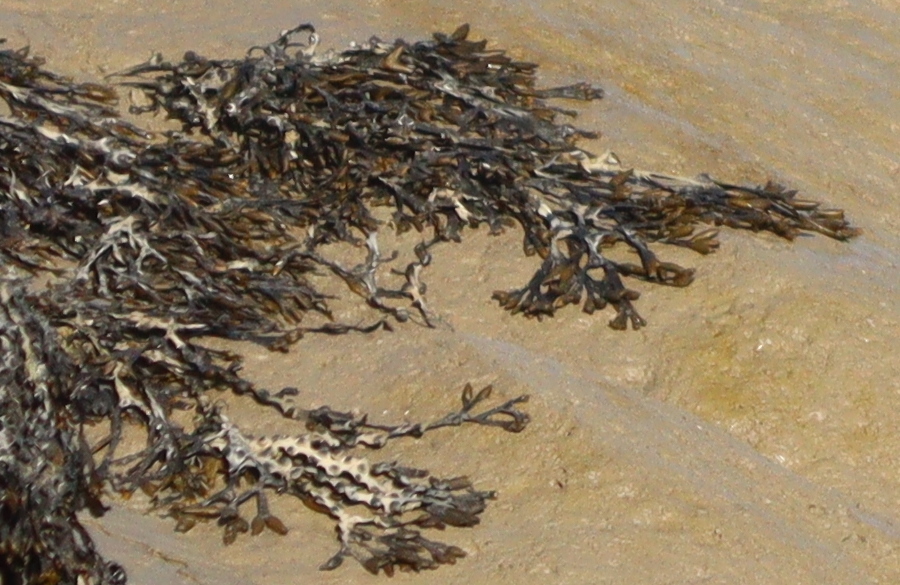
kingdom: Chromista
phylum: Ochrophyta
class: Phaeophyceae
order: Fucales
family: Fucaceae
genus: Fucus
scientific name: Fucus vesiculosus
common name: Bladder wrack
